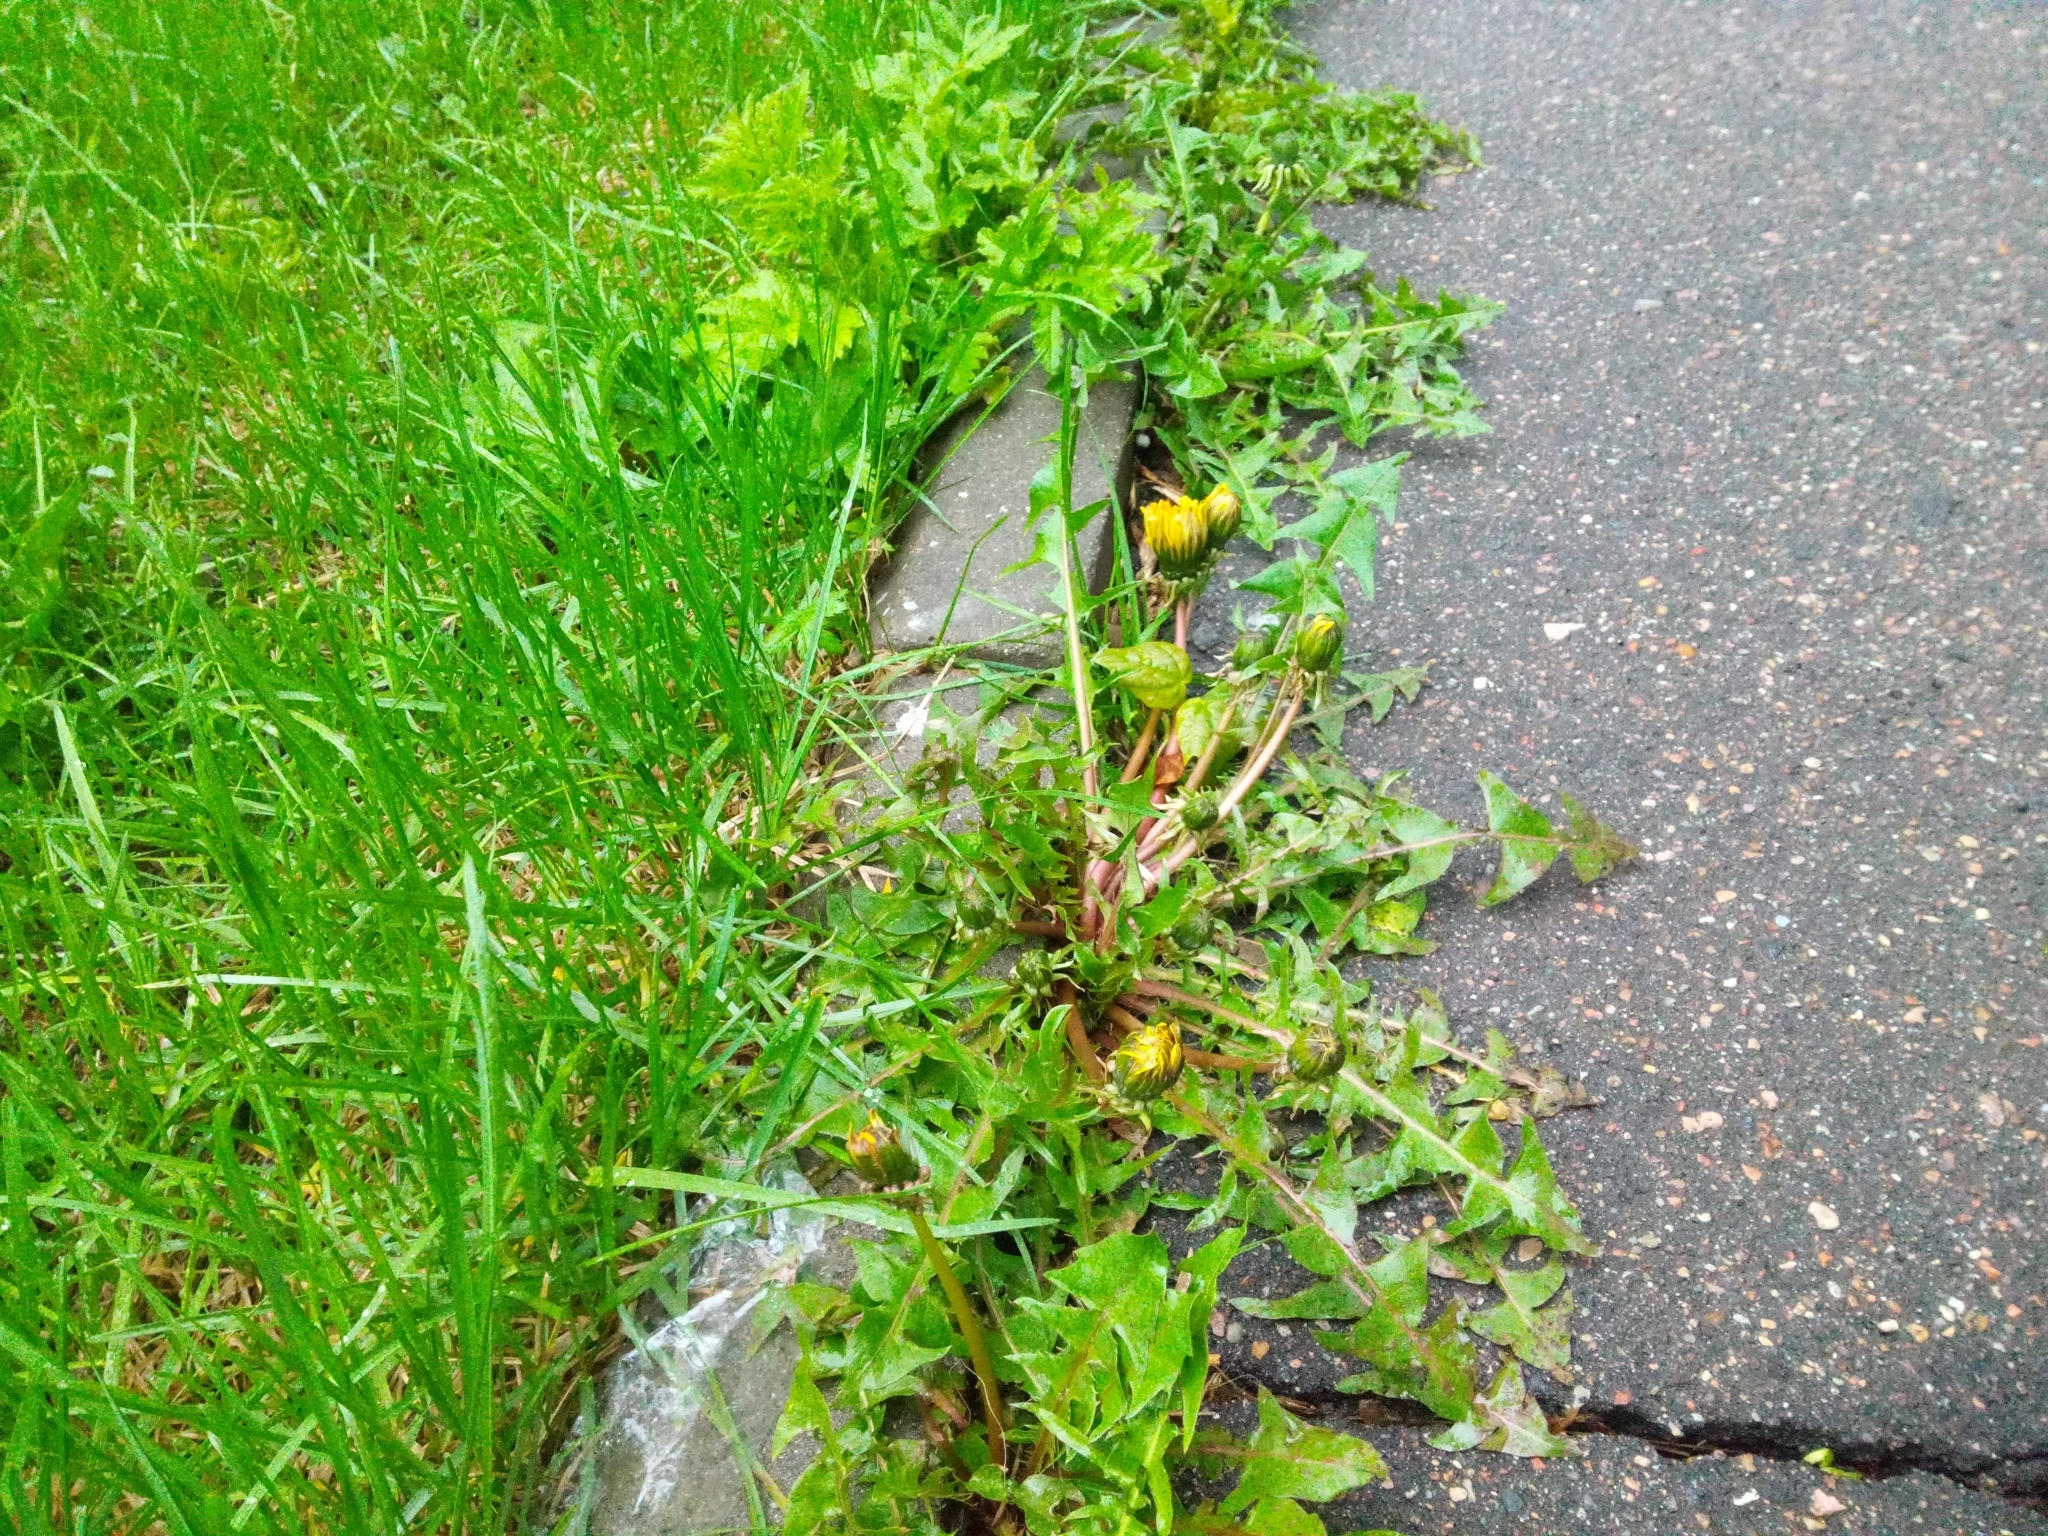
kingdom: Plantae
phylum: Tracheophyta
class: Magnoliopsida
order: Asterales
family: Asteraceae
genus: Taraxacum
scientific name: Taraxacum officinale
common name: Common dandelion
